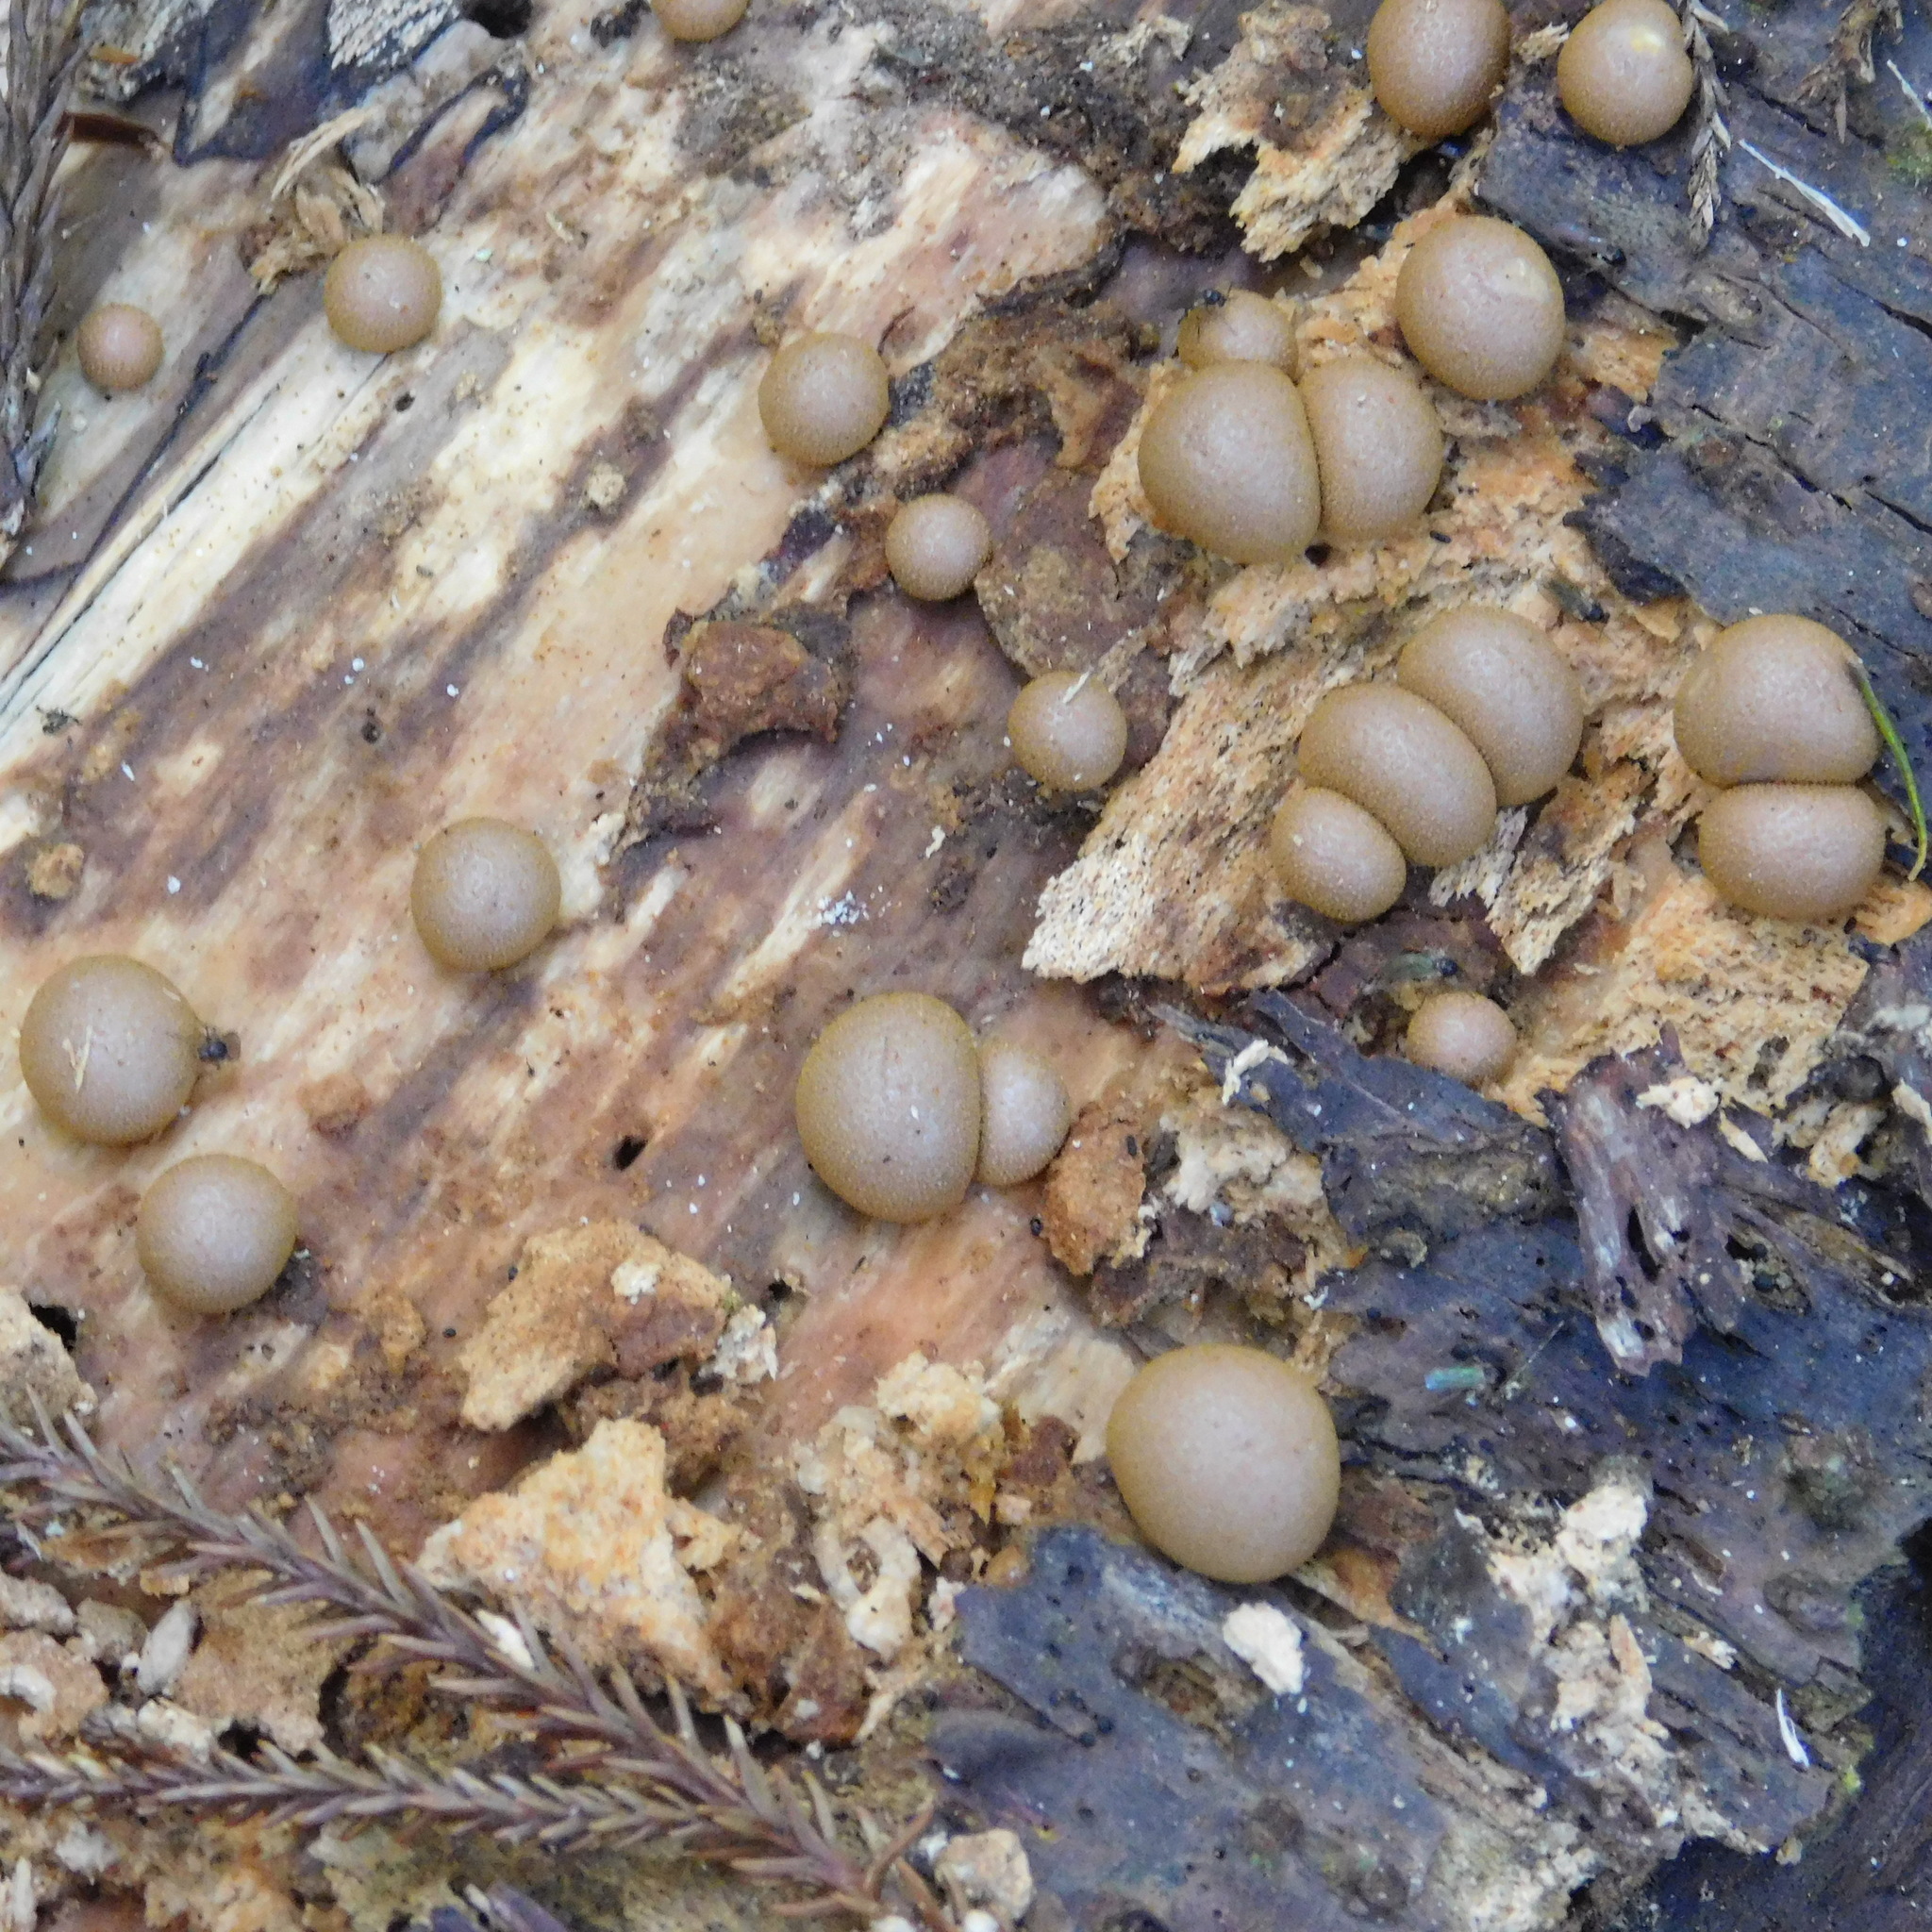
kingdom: Protozoa
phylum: Mycetozoa
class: Myxomycetes
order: Cribrariales
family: Tubiferaceae
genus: Lycogala
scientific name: Lycogala epidendrum
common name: Wolf's milk
